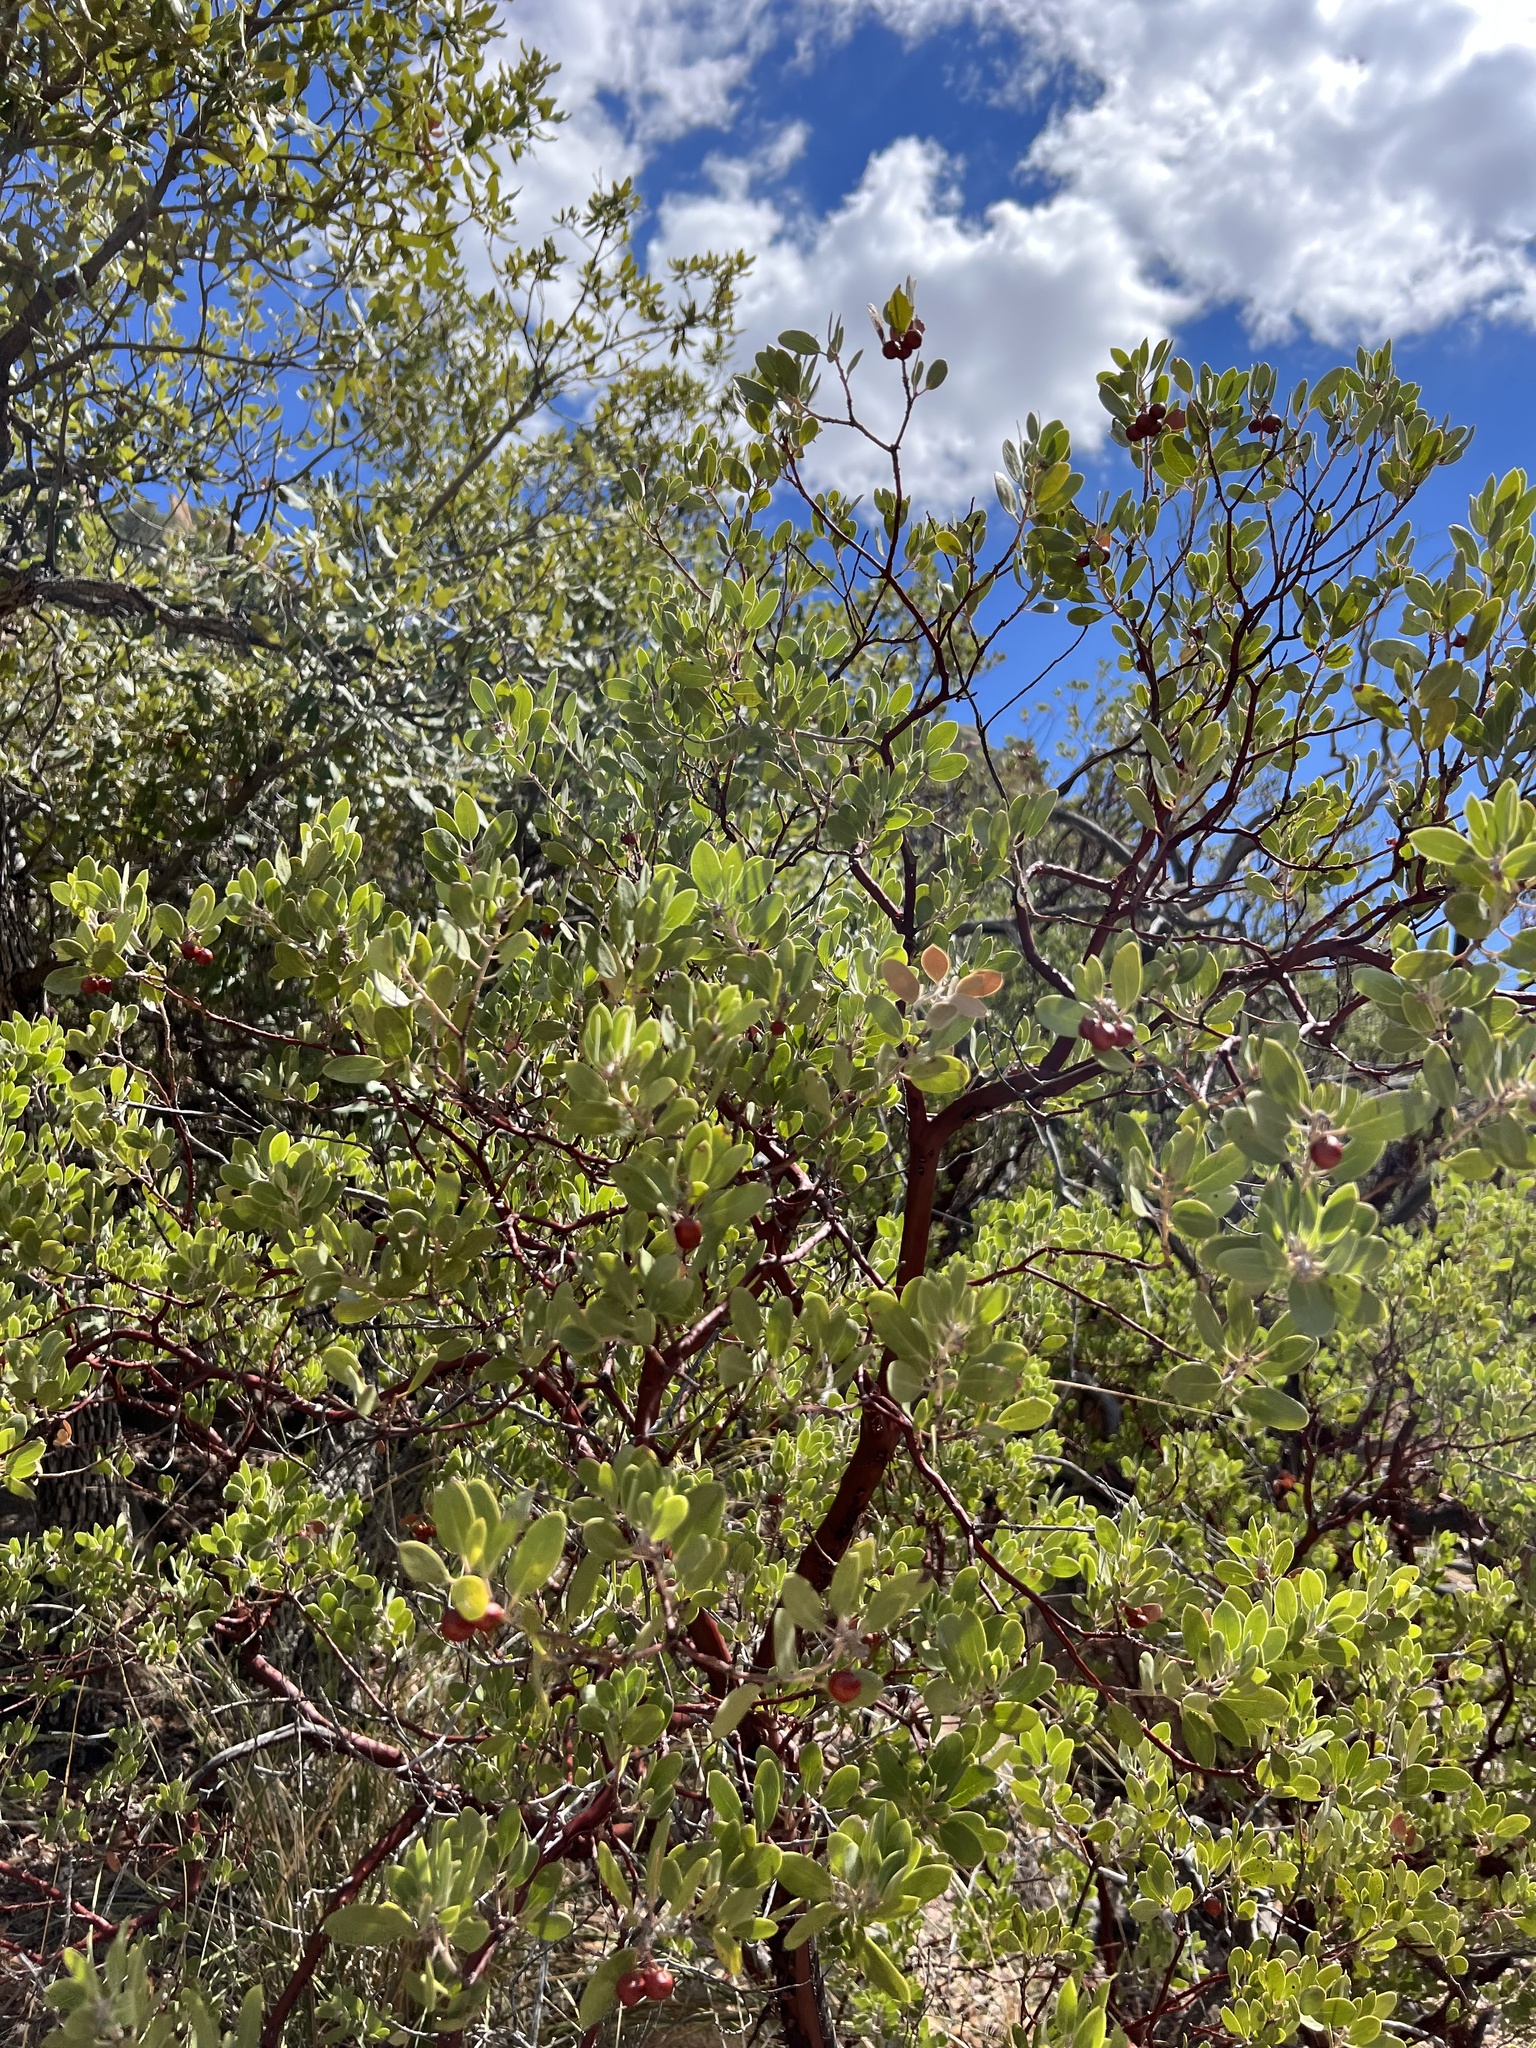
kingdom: Plantae
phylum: Tracheophyta
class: Magnoliopsida
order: Ericales
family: Ericaceae
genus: Arctostaphylos
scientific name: Arctostaphylos pungens
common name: Mexican manzanita
